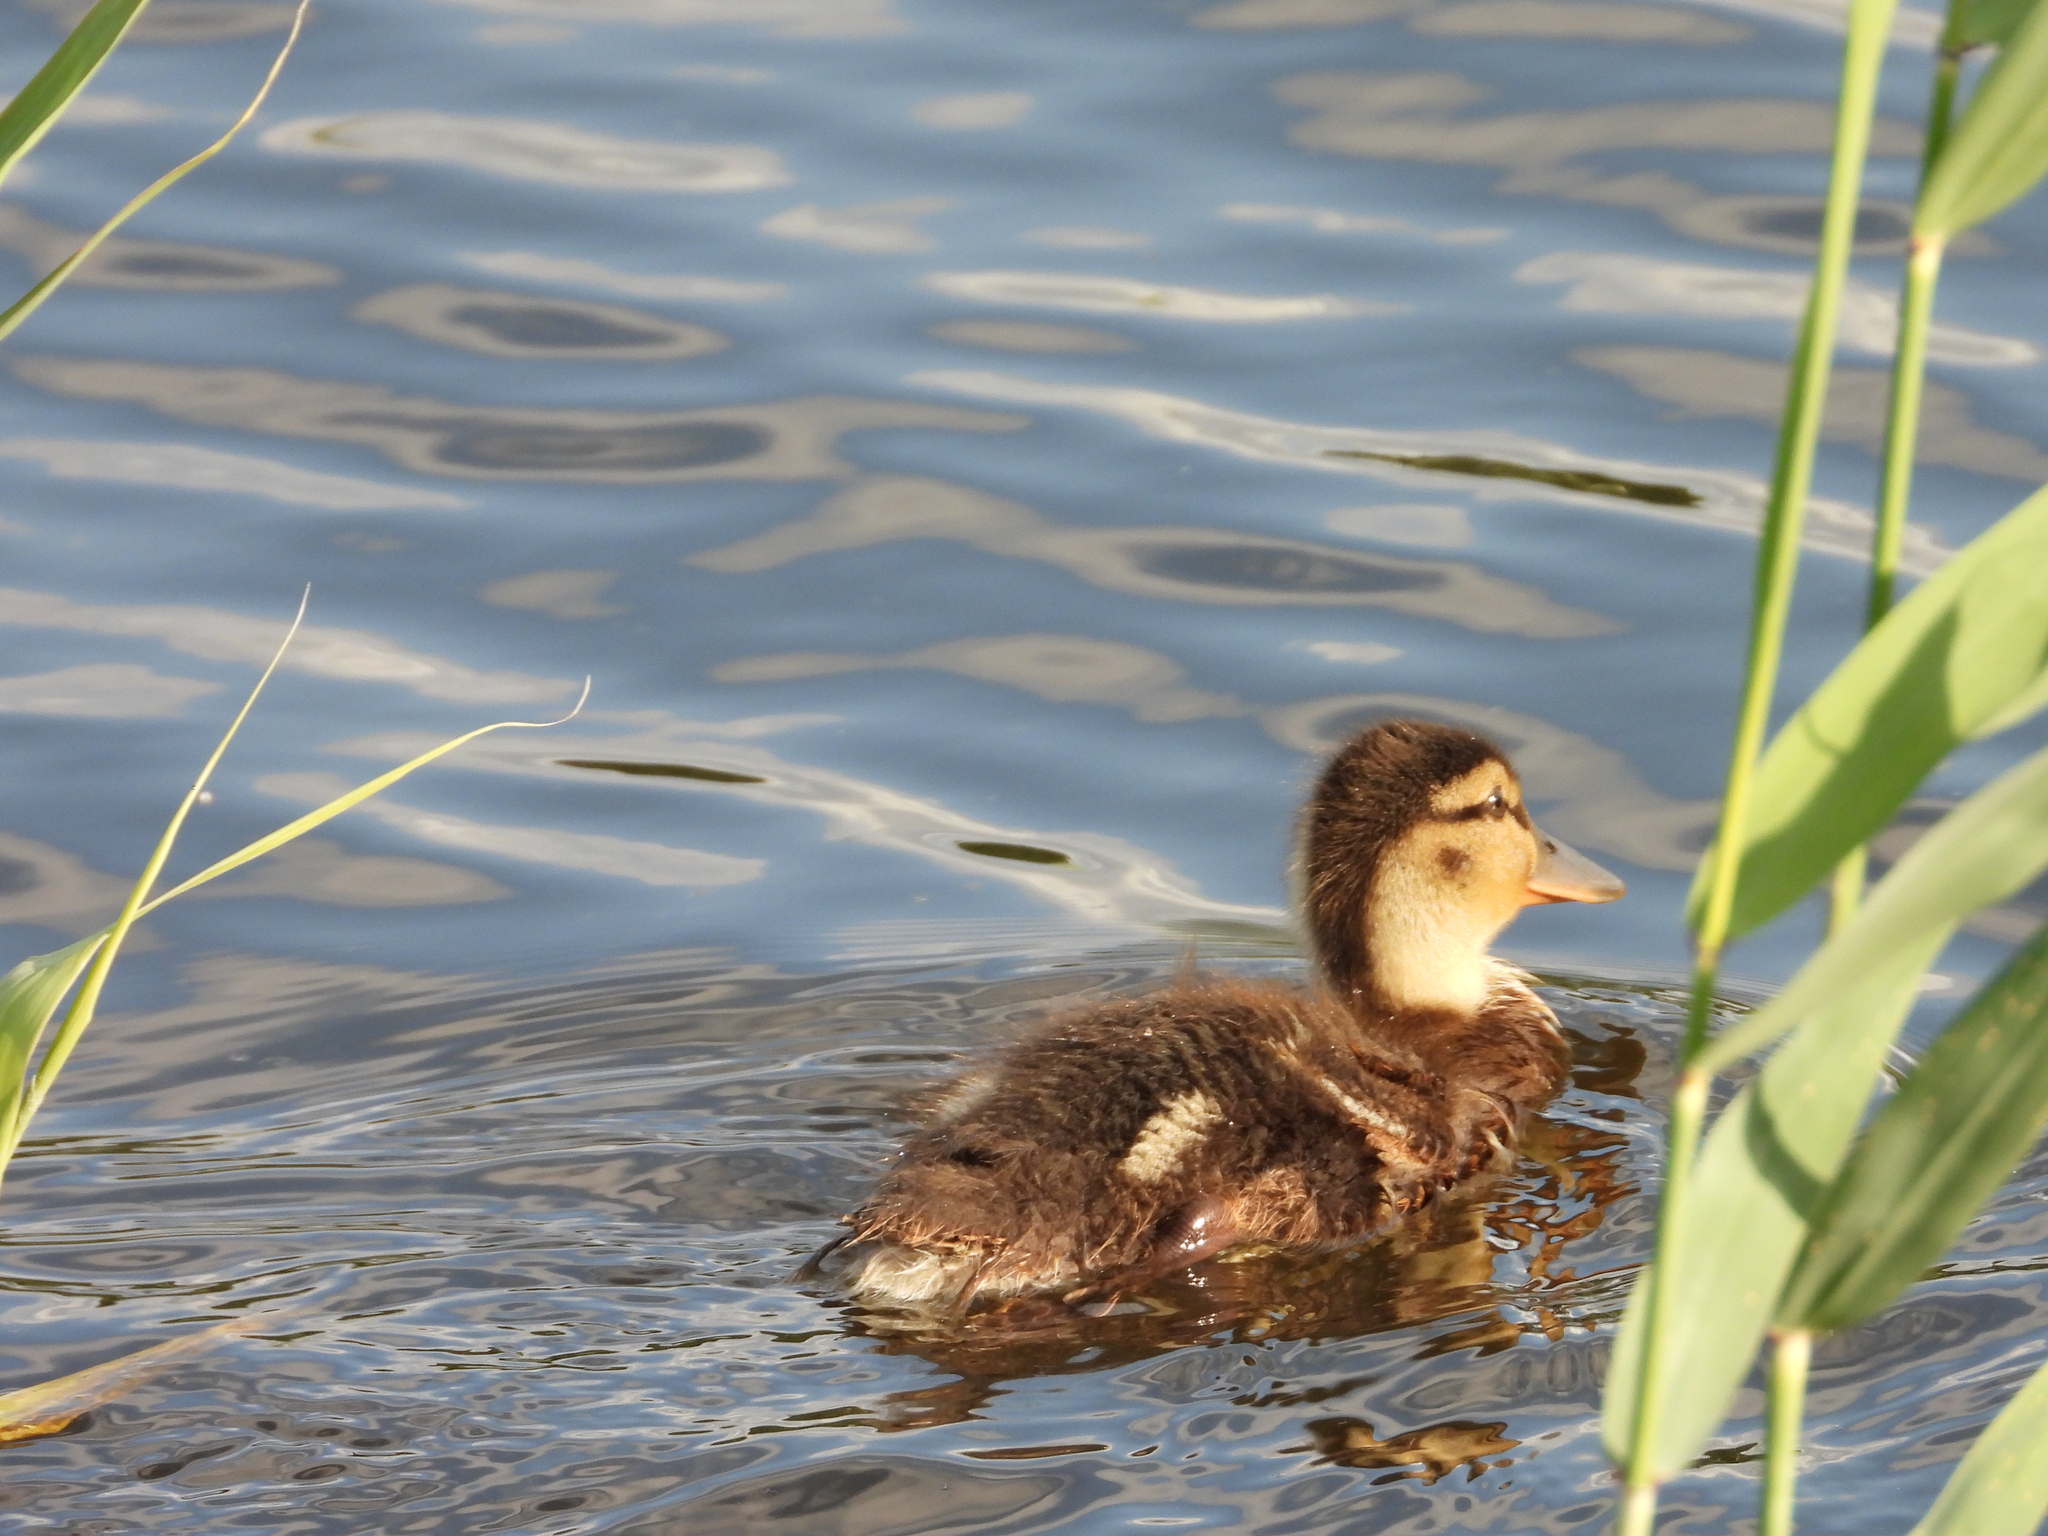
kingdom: Animalia
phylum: Chordata
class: Aves
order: Anseriformes
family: Anatidae
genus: Anas
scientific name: Anas platyrhynchos
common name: Mallard
